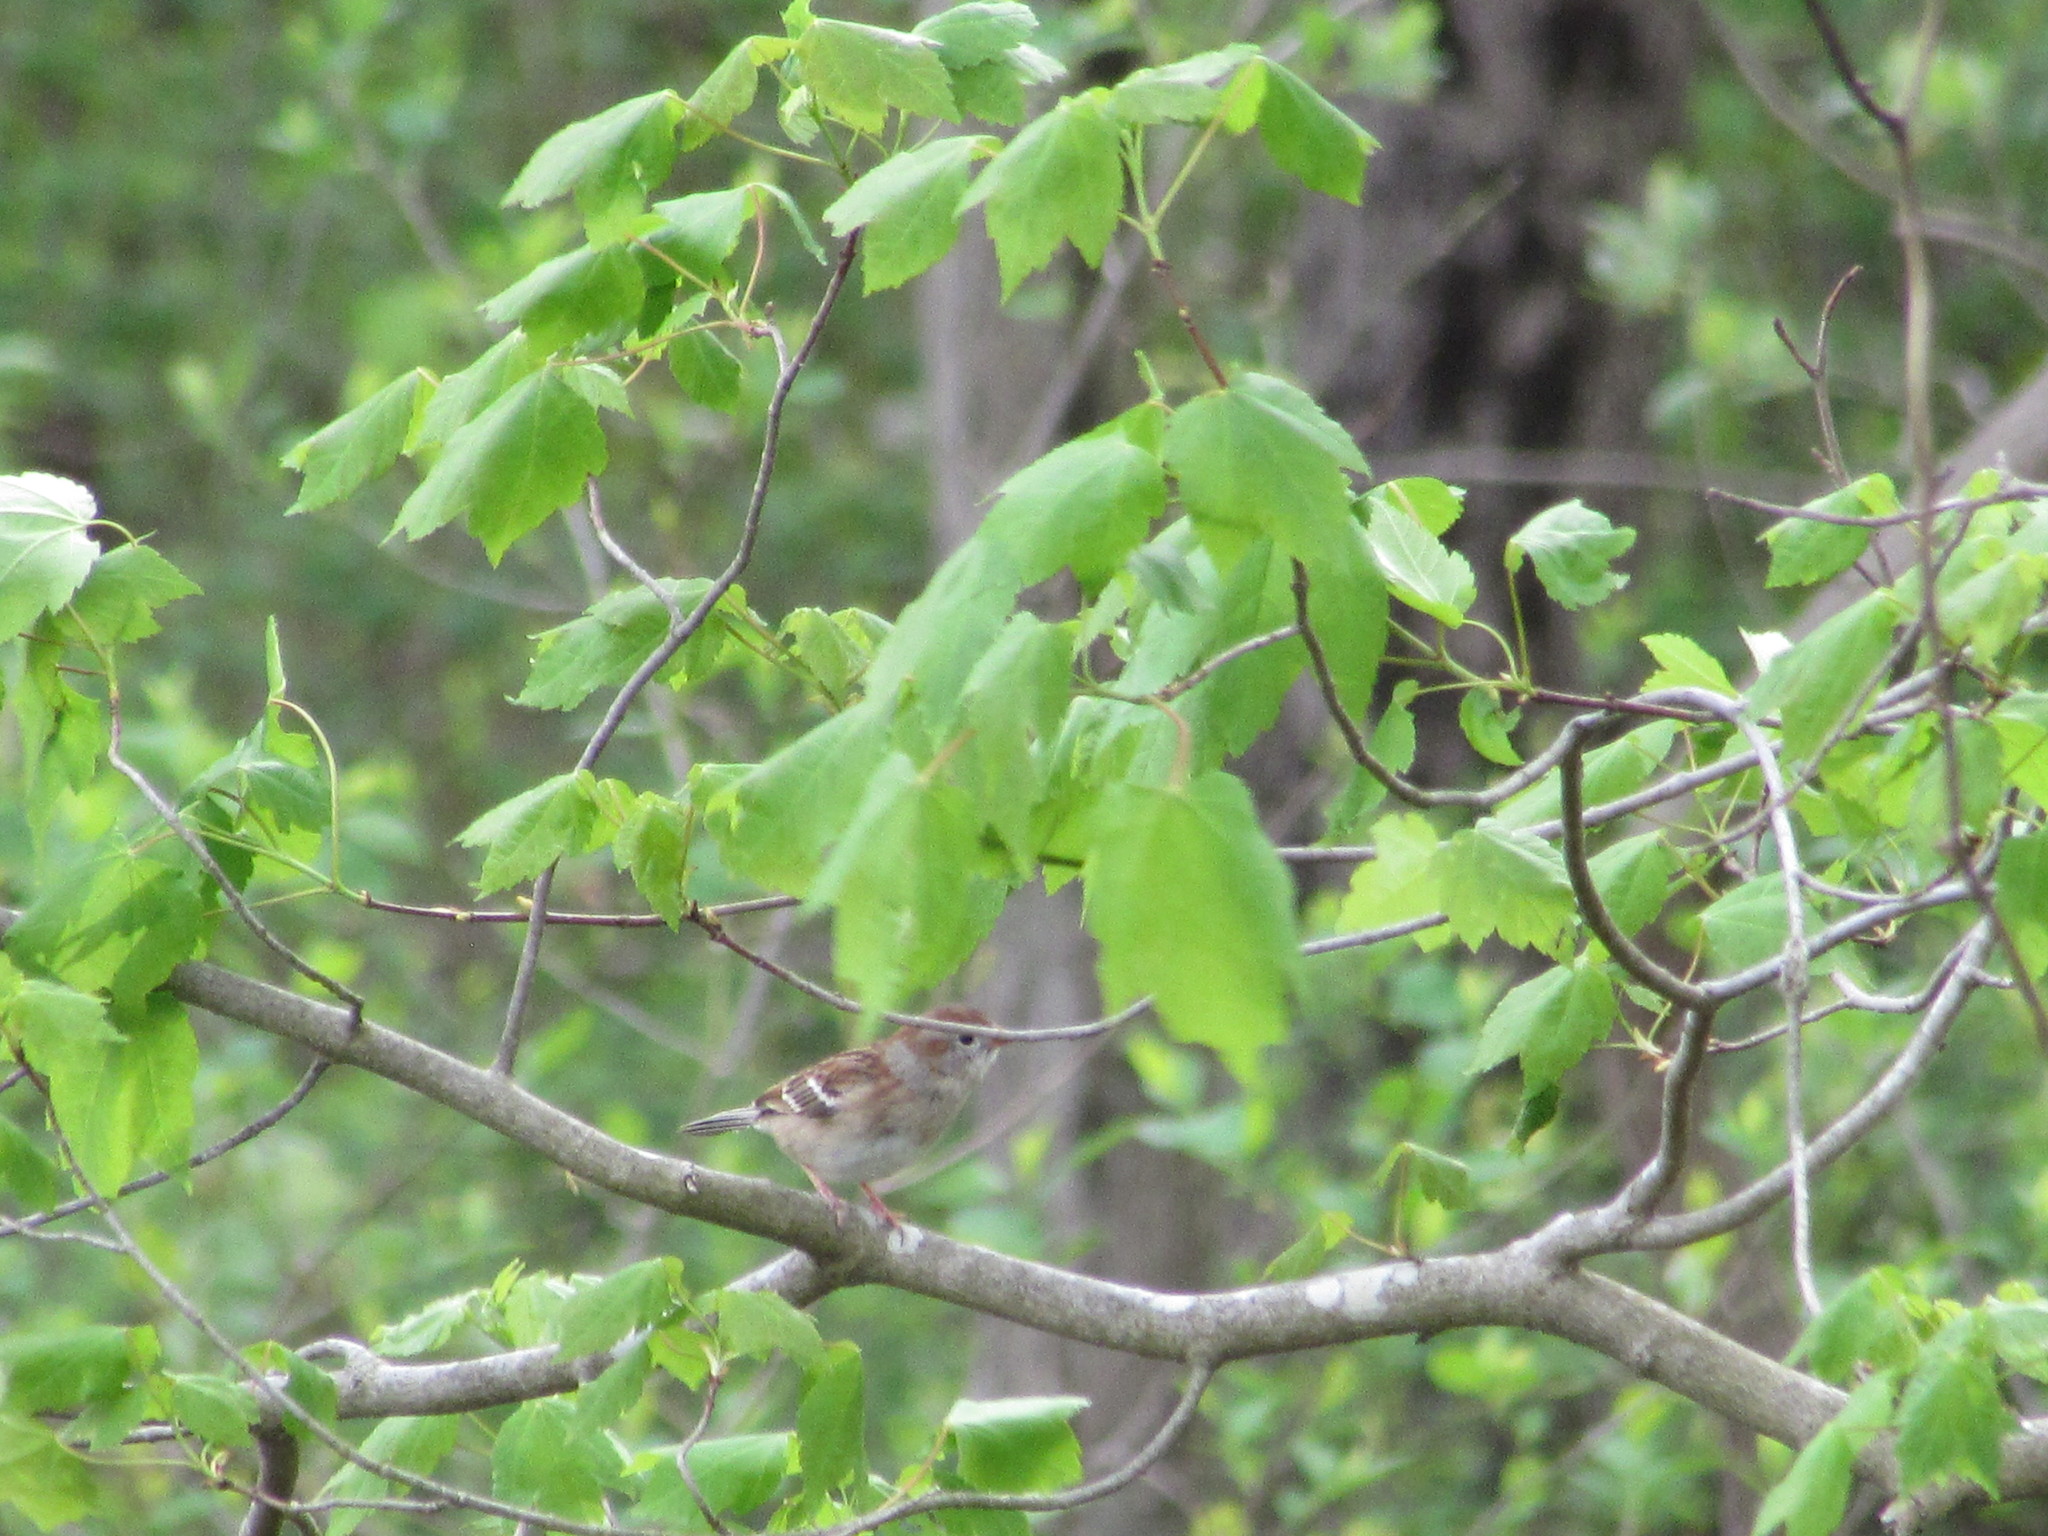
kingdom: Animalia
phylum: Chordata
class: Aves
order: Passeriformes
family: Passerellidae
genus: Spizella
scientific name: Spizella pusilla
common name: Field sparrow
